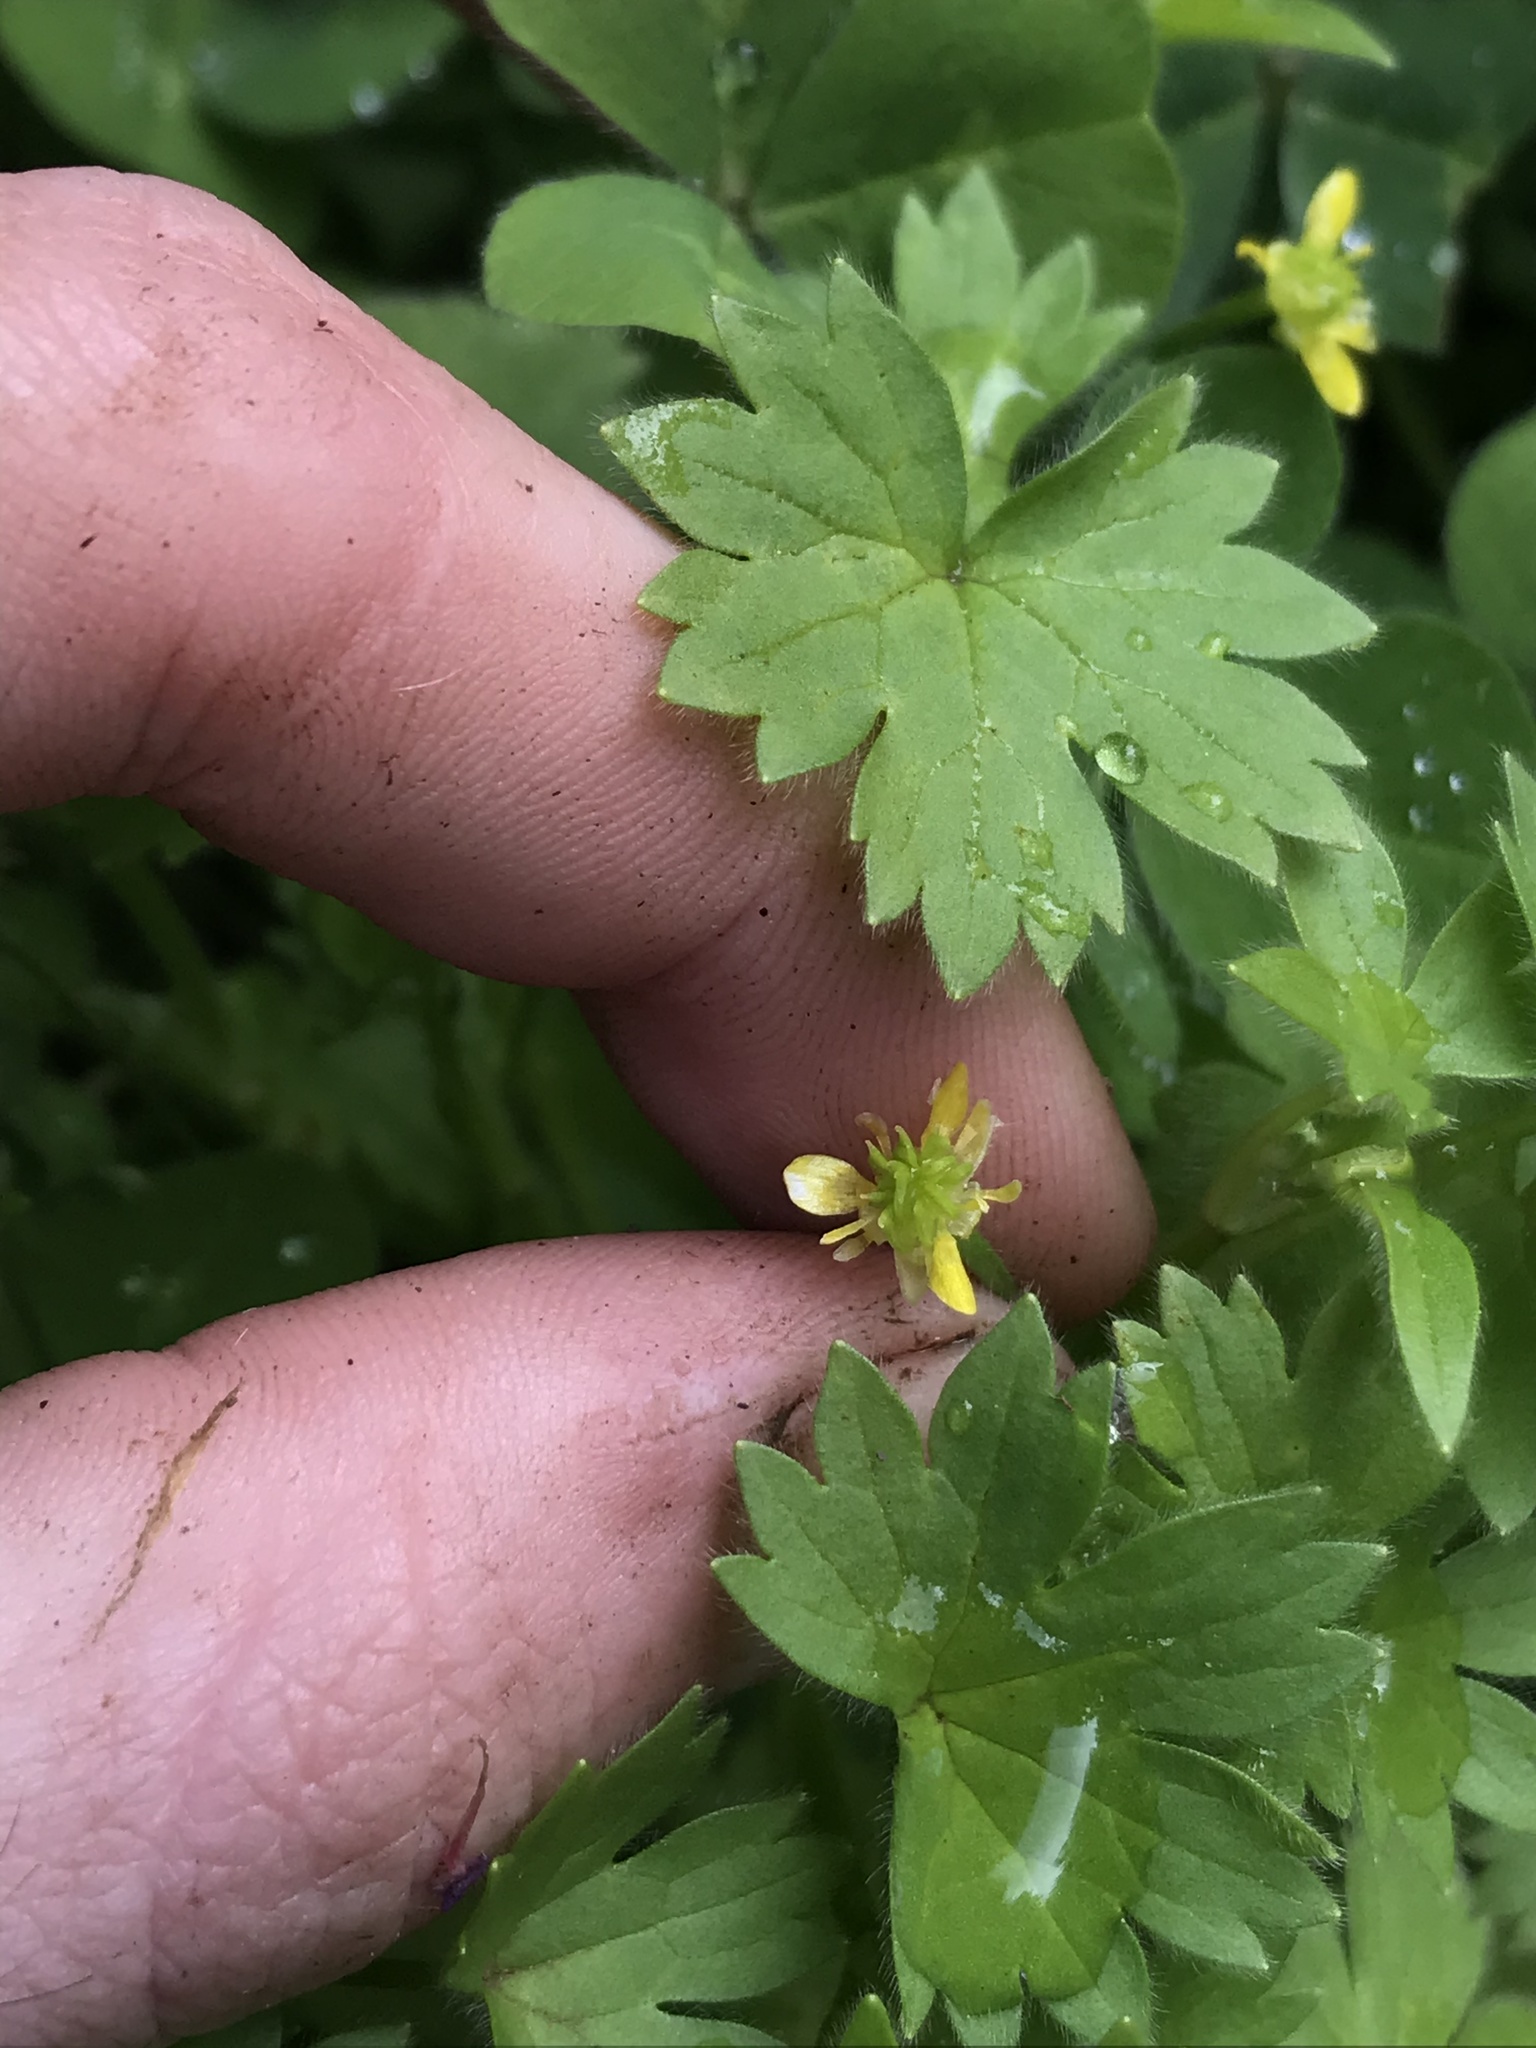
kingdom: Plantae
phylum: Tracheophyta
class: Magnoliopsida
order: Ranunculales
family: Ranunculaceae
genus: Ranunculus
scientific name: Ranunculus parviflorus
